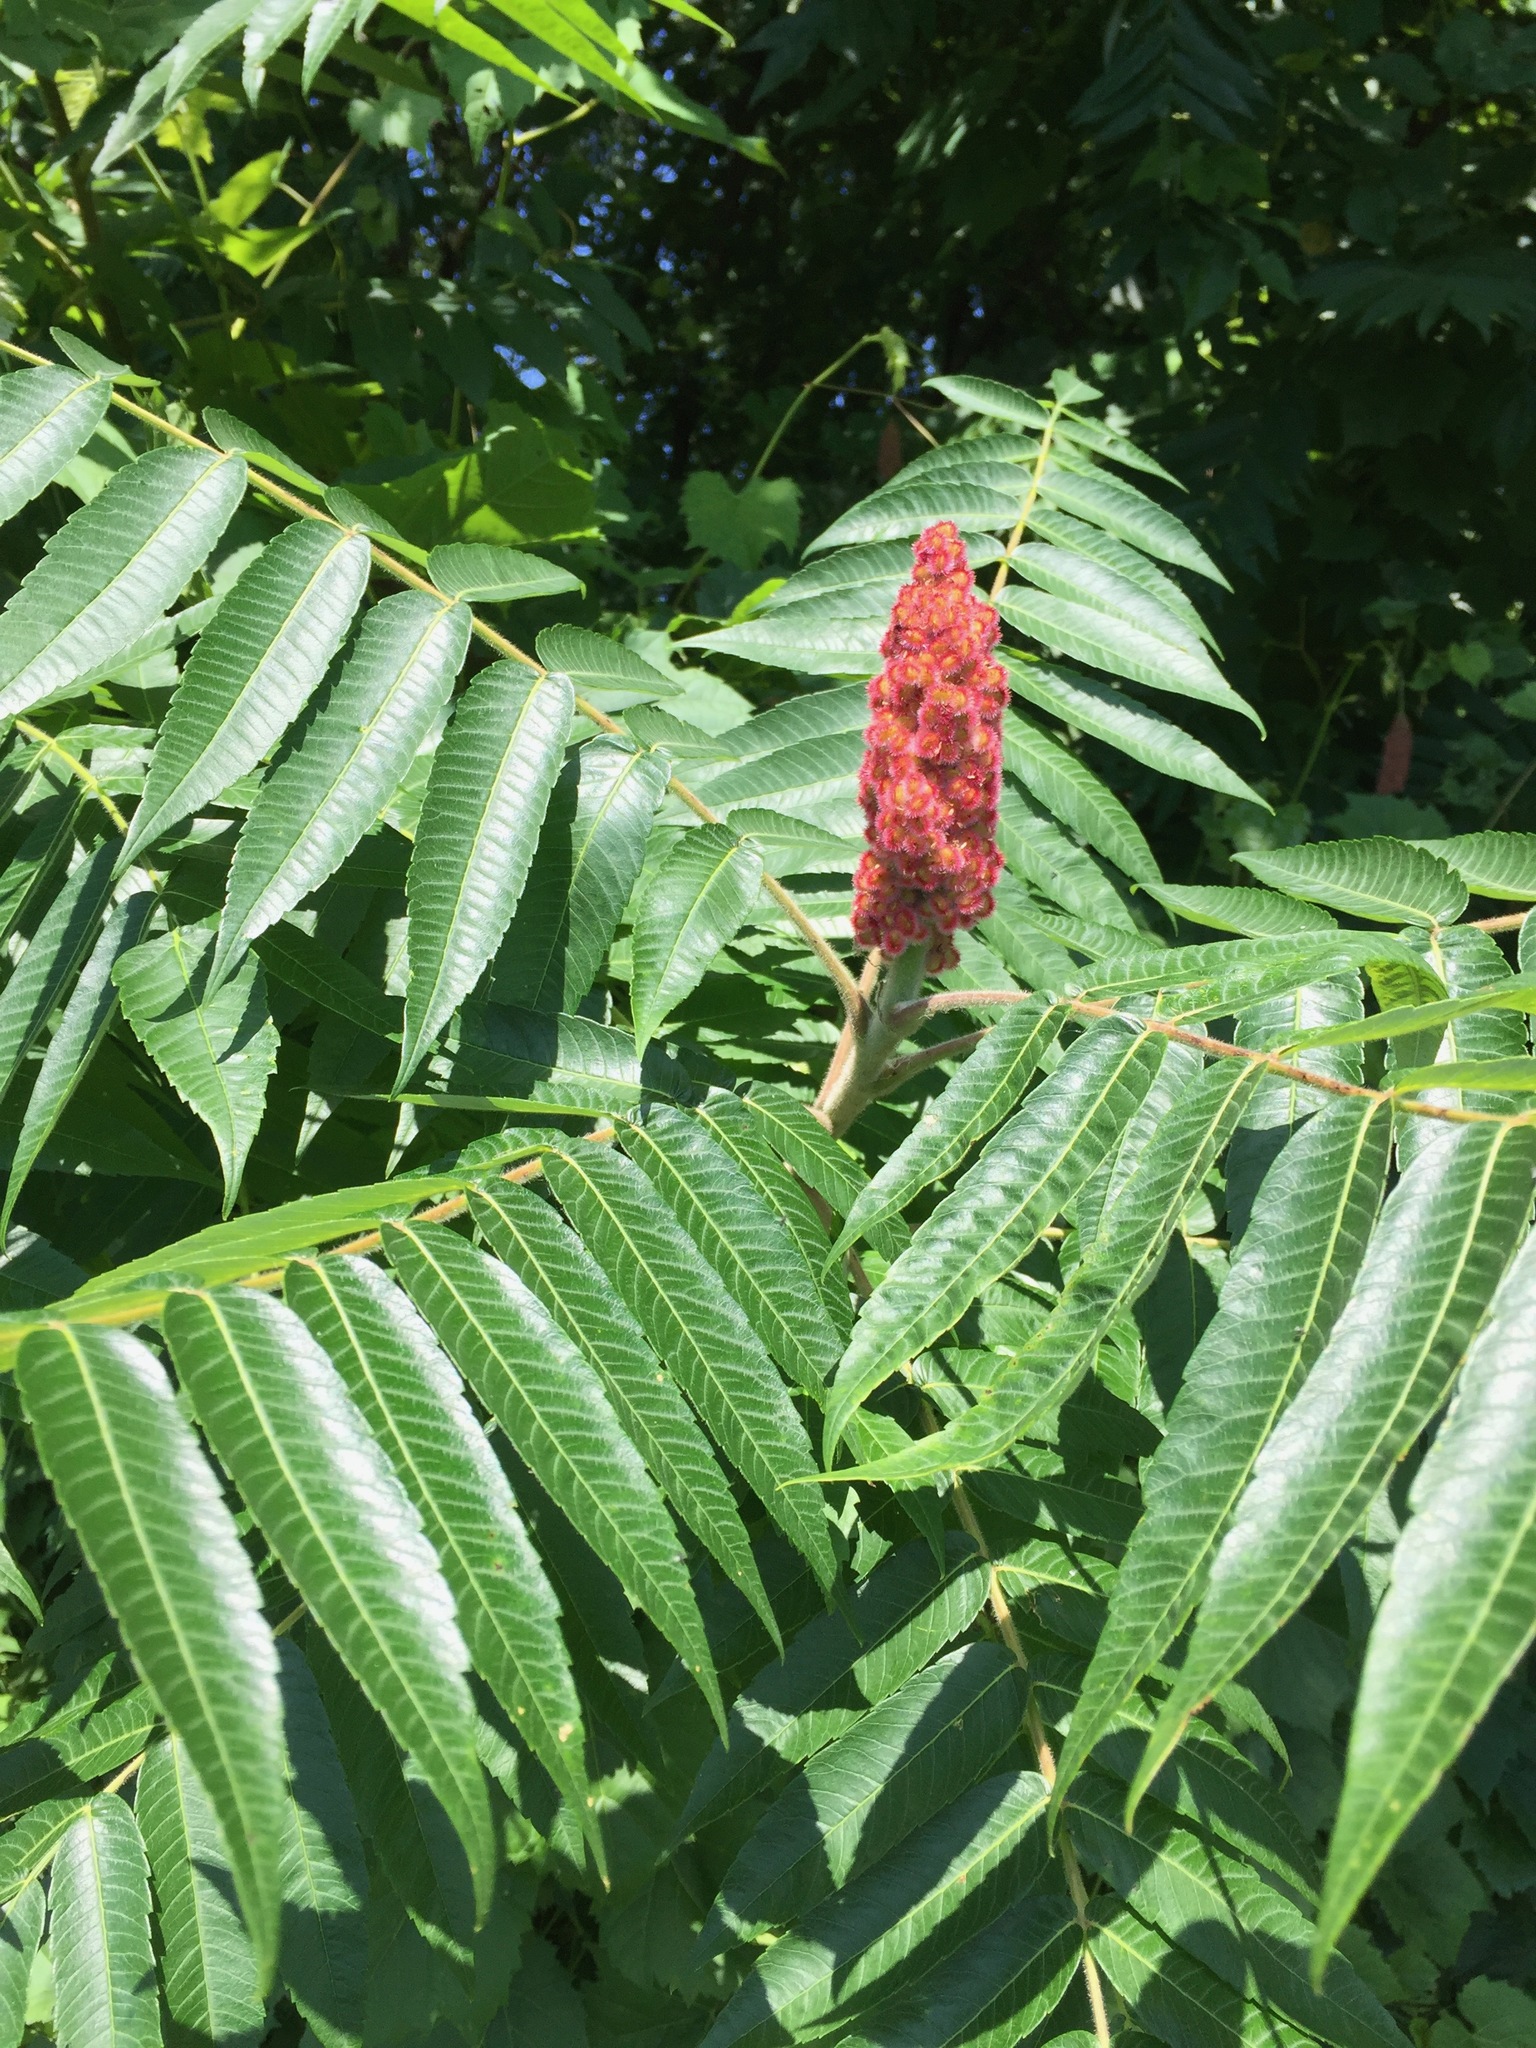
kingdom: Plantae
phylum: Tracheophyta
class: Magnoliopsida
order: Sapindales
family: Anacardiaceae
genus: Rhus
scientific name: Rhus typhina
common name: Staghorn sumac
